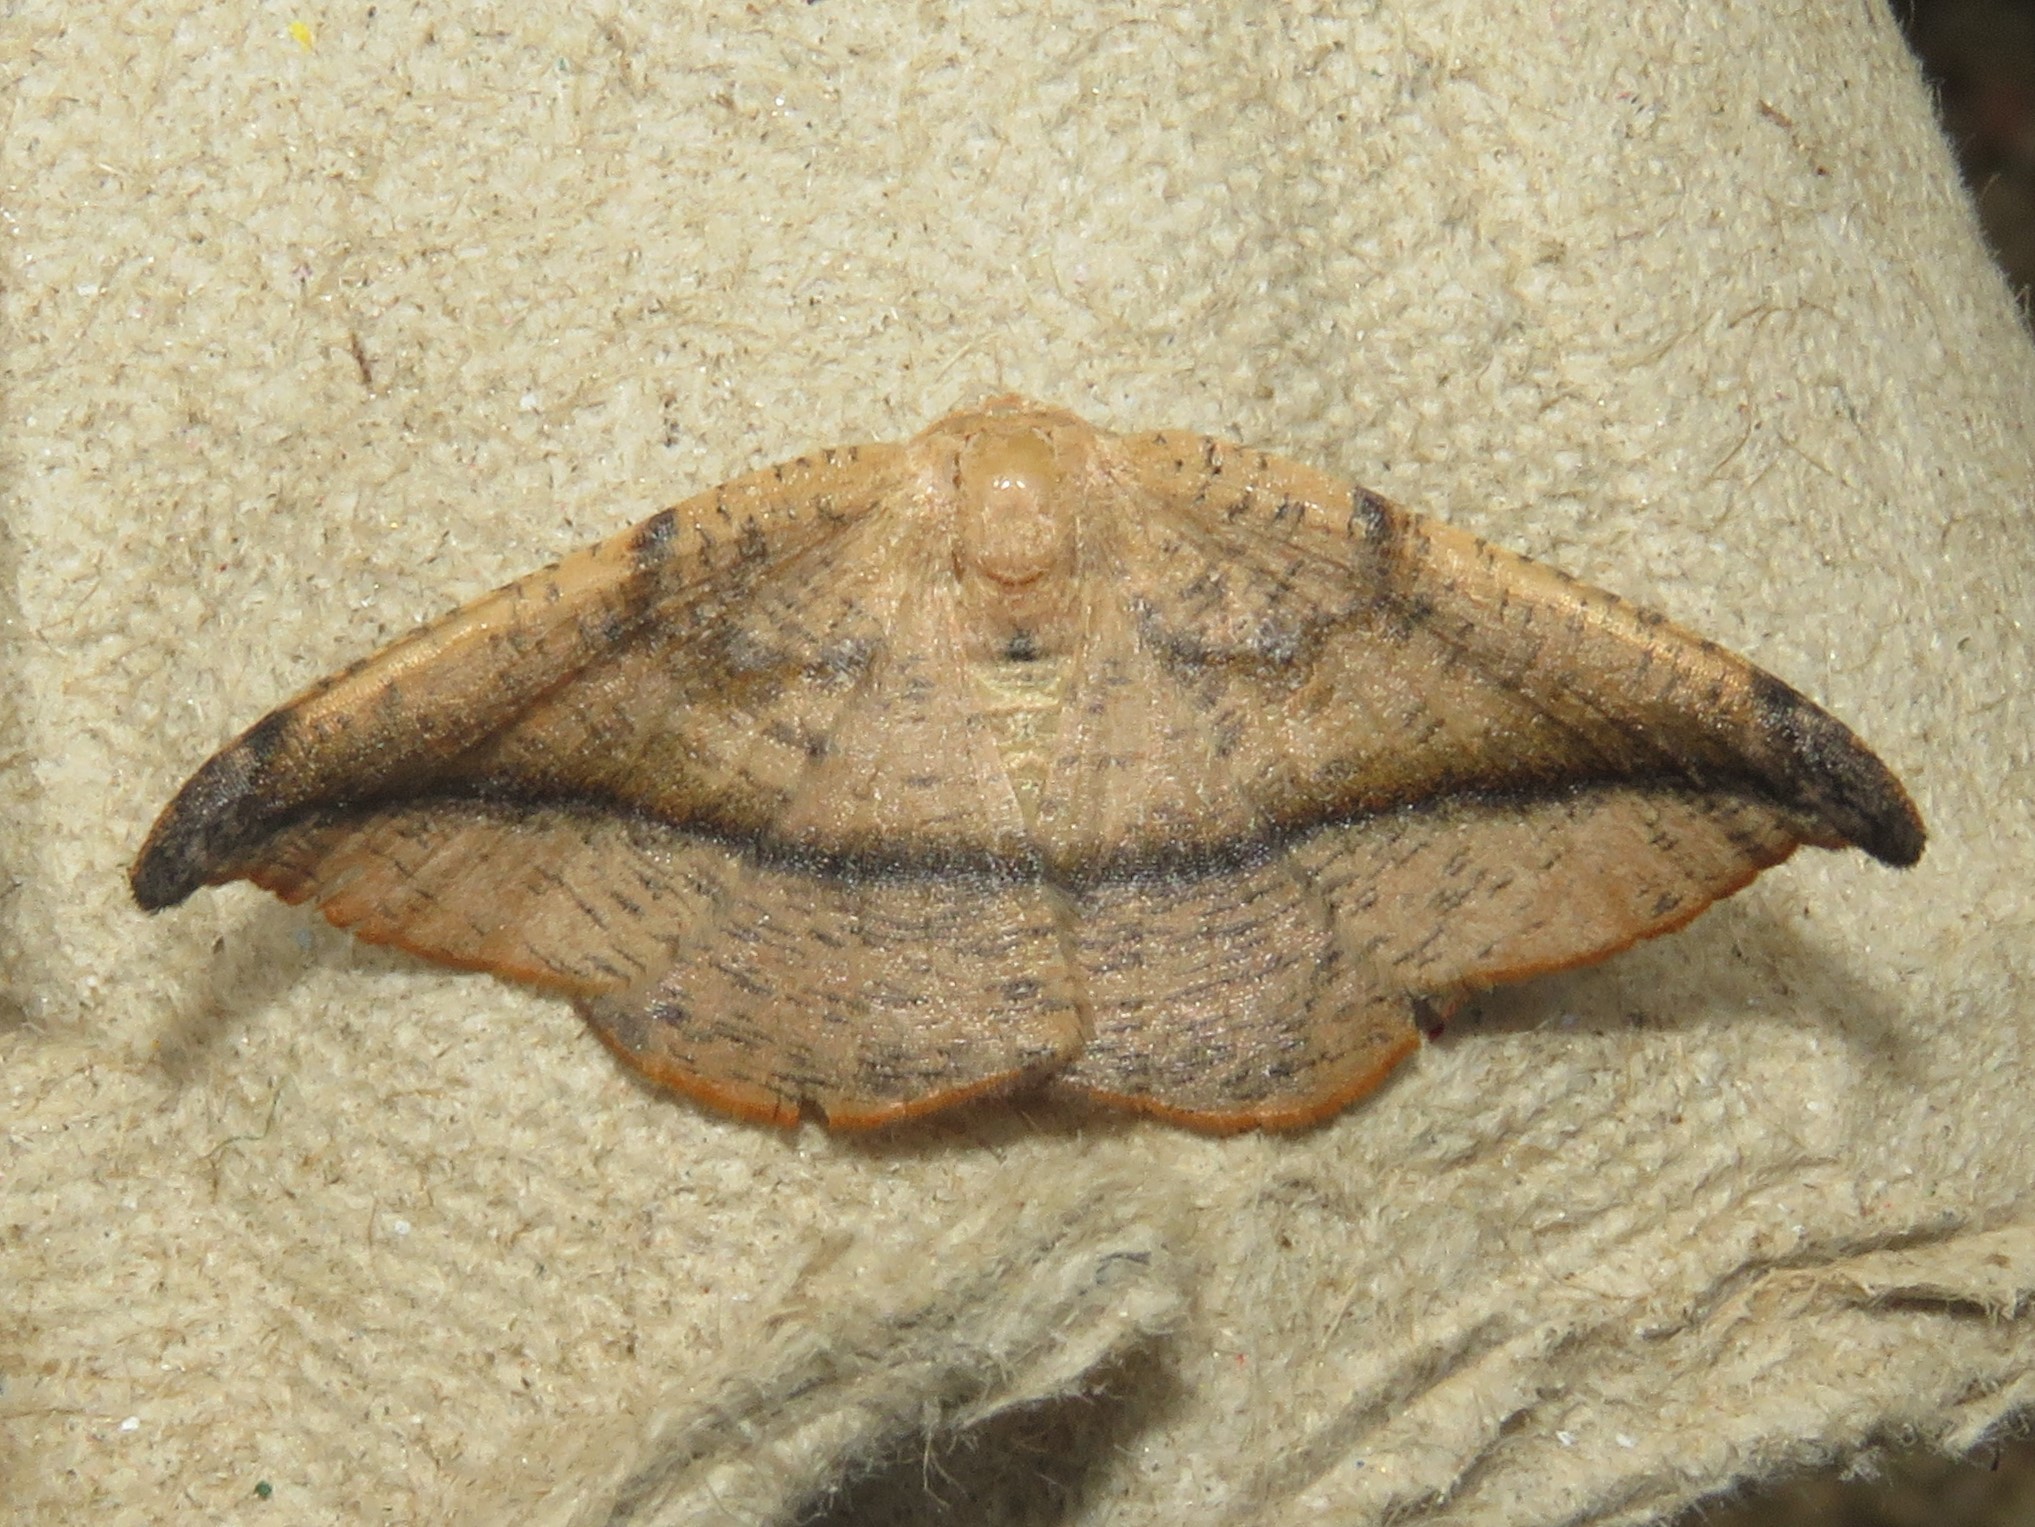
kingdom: Animalia
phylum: Arthropoda
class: Insecta
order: Lepidoptera
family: Geometridae
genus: Patalene
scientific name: Patalene olyzonaria
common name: Juniper geometer moth
